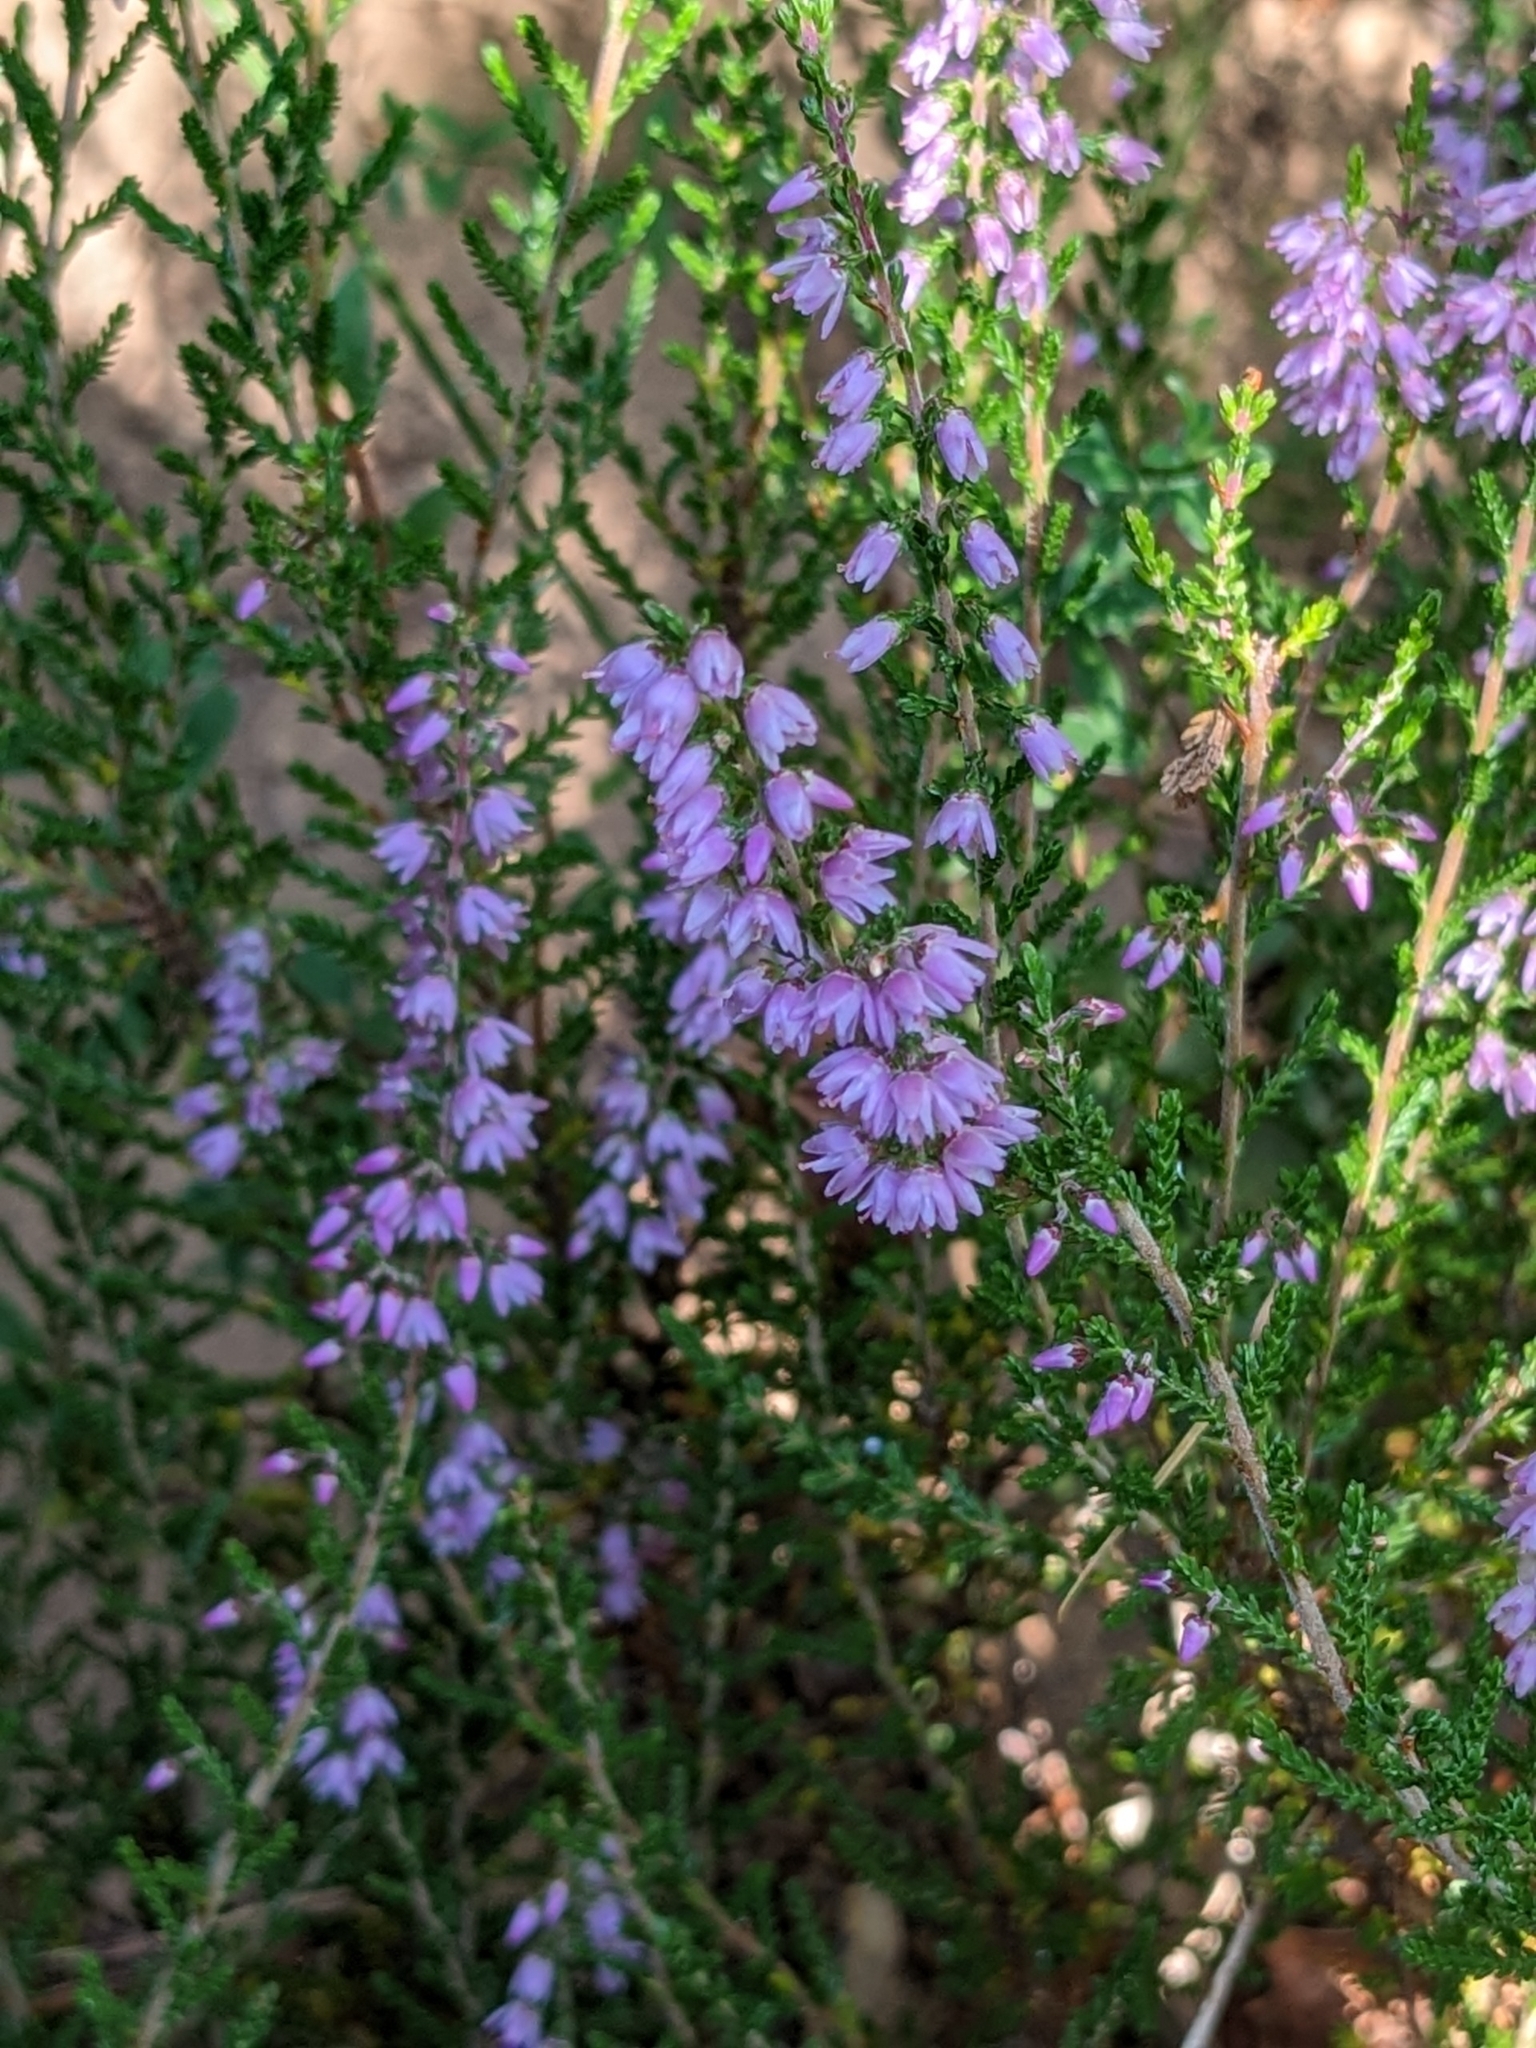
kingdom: Plantae
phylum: Tracheophyta
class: Magnoliopsida
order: Ericales
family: Ericaceae
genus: Calluna
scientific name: Calluna vulgaris
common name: Heather
